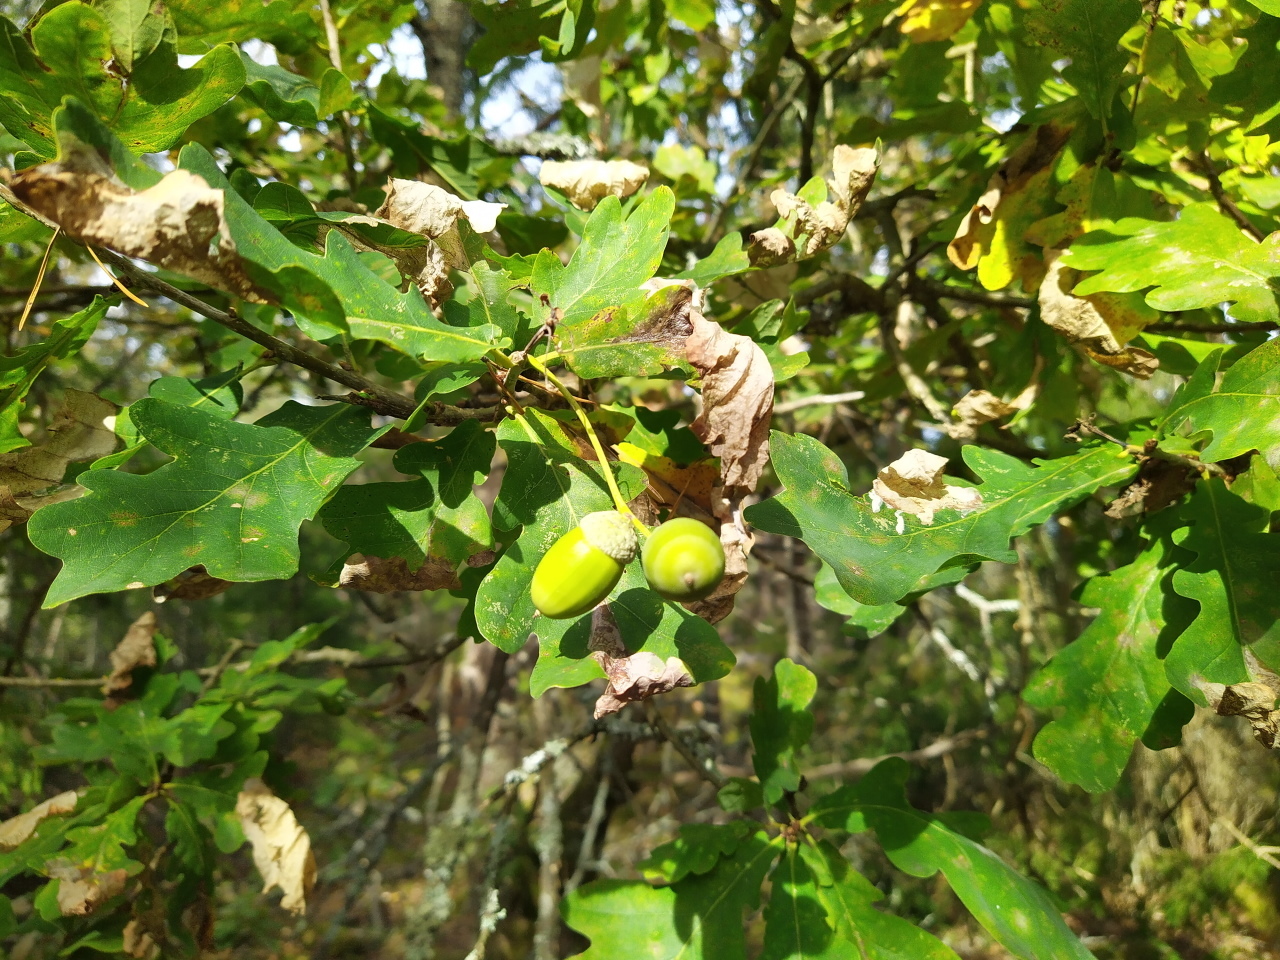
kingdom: Plantae
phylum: Tracheophyta
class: Magnoliopsida
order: Fagales
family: Fagaceae
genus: Quercus
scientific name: Quercus robur
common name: Pedunculate oak
